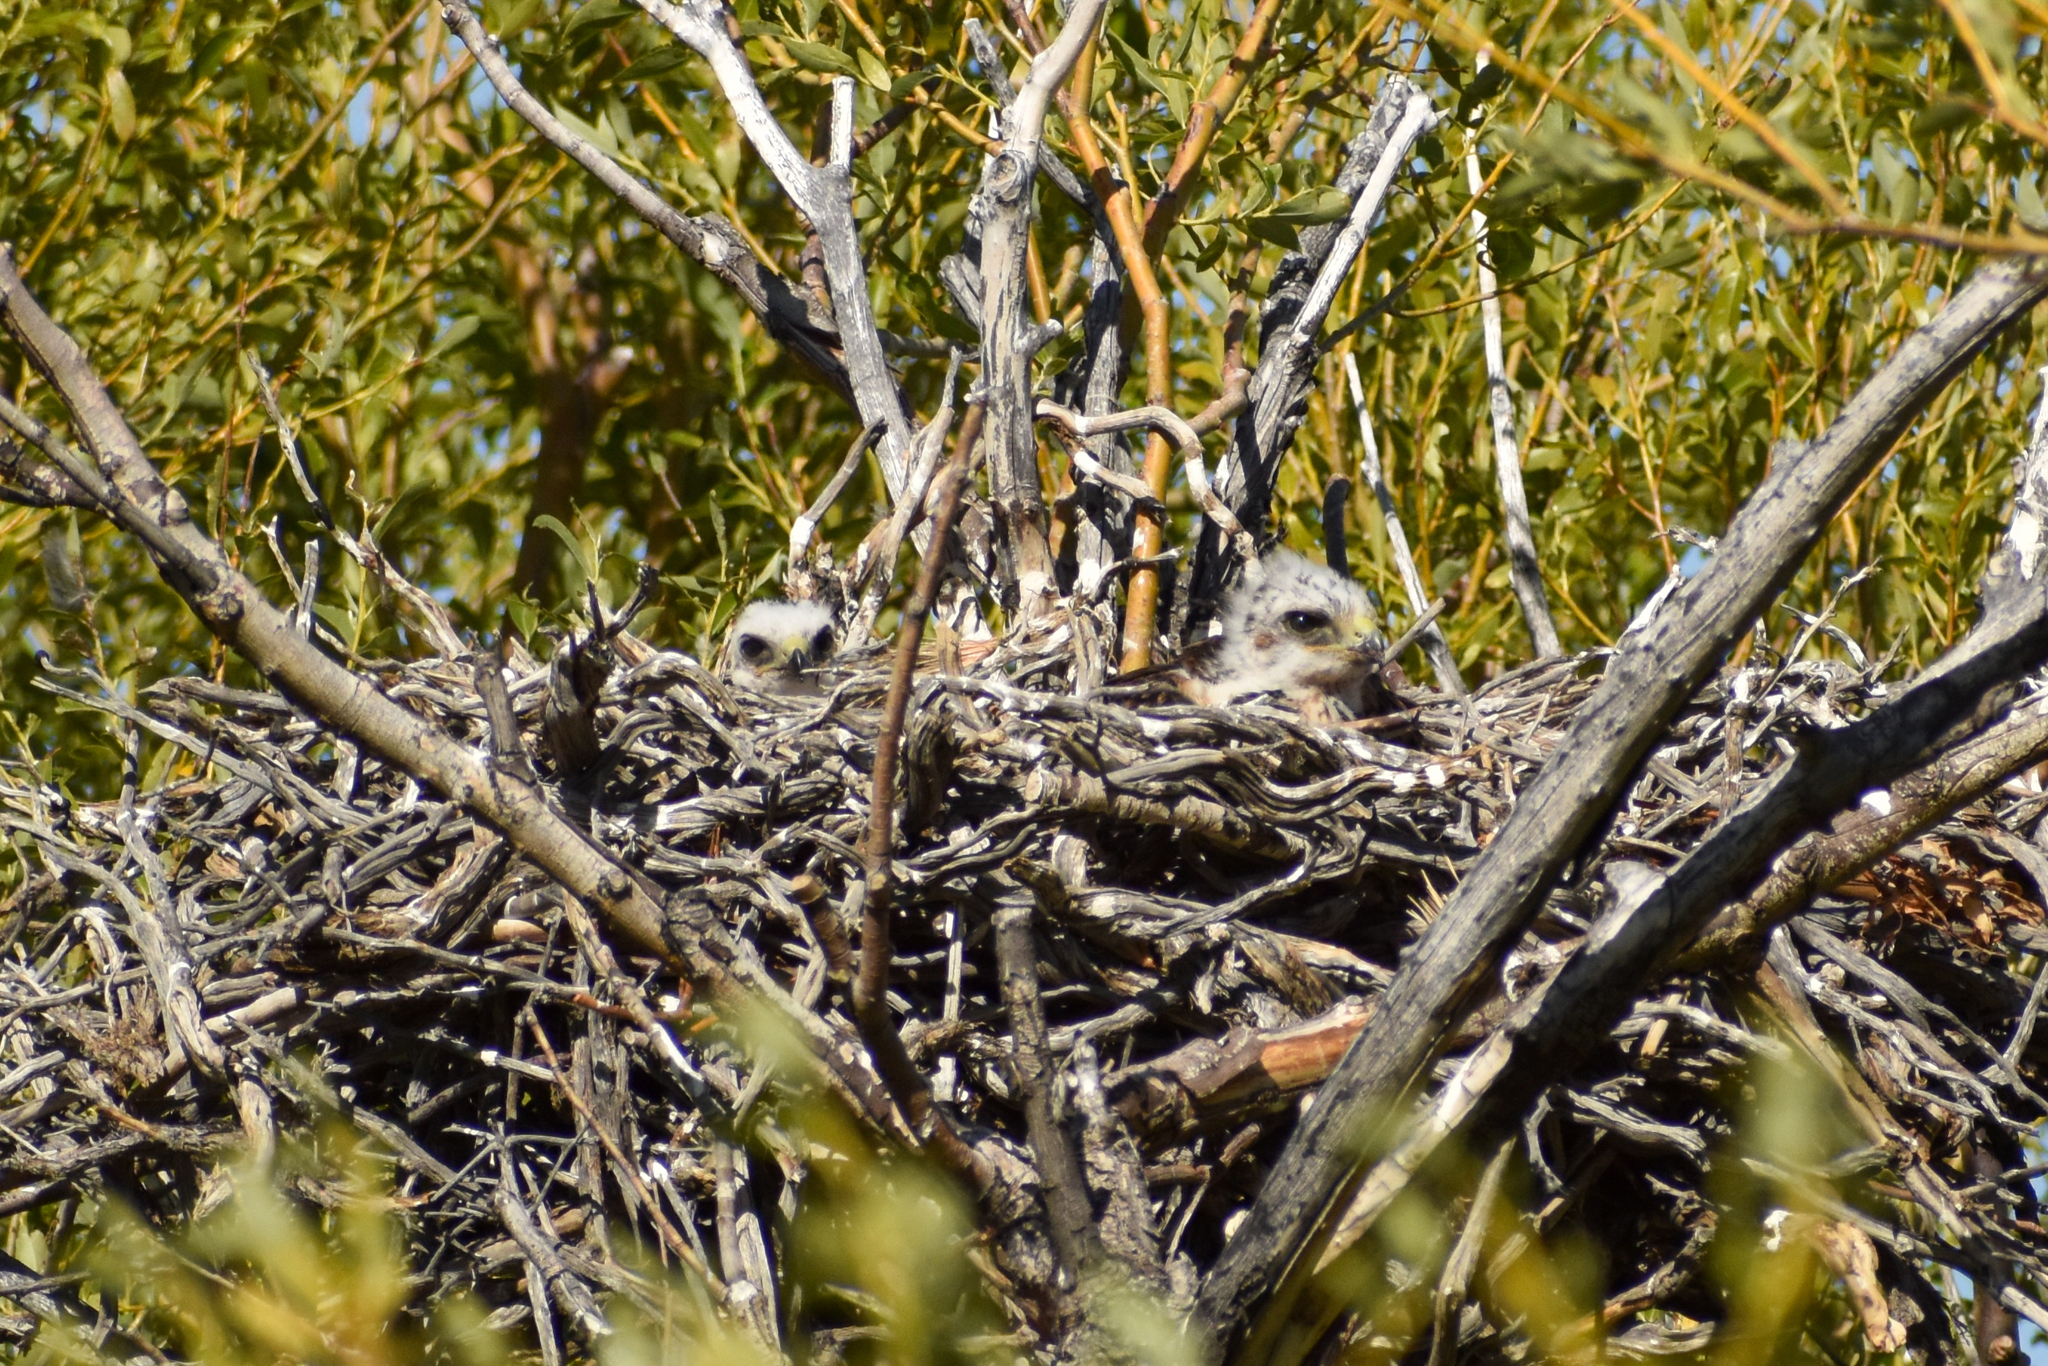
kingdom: Animalia
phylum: Chordata
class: Aves
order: Accipitriformes
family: Accipitridae
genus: Buteo
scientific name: Buteo polyosoma
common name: Variable hawk
